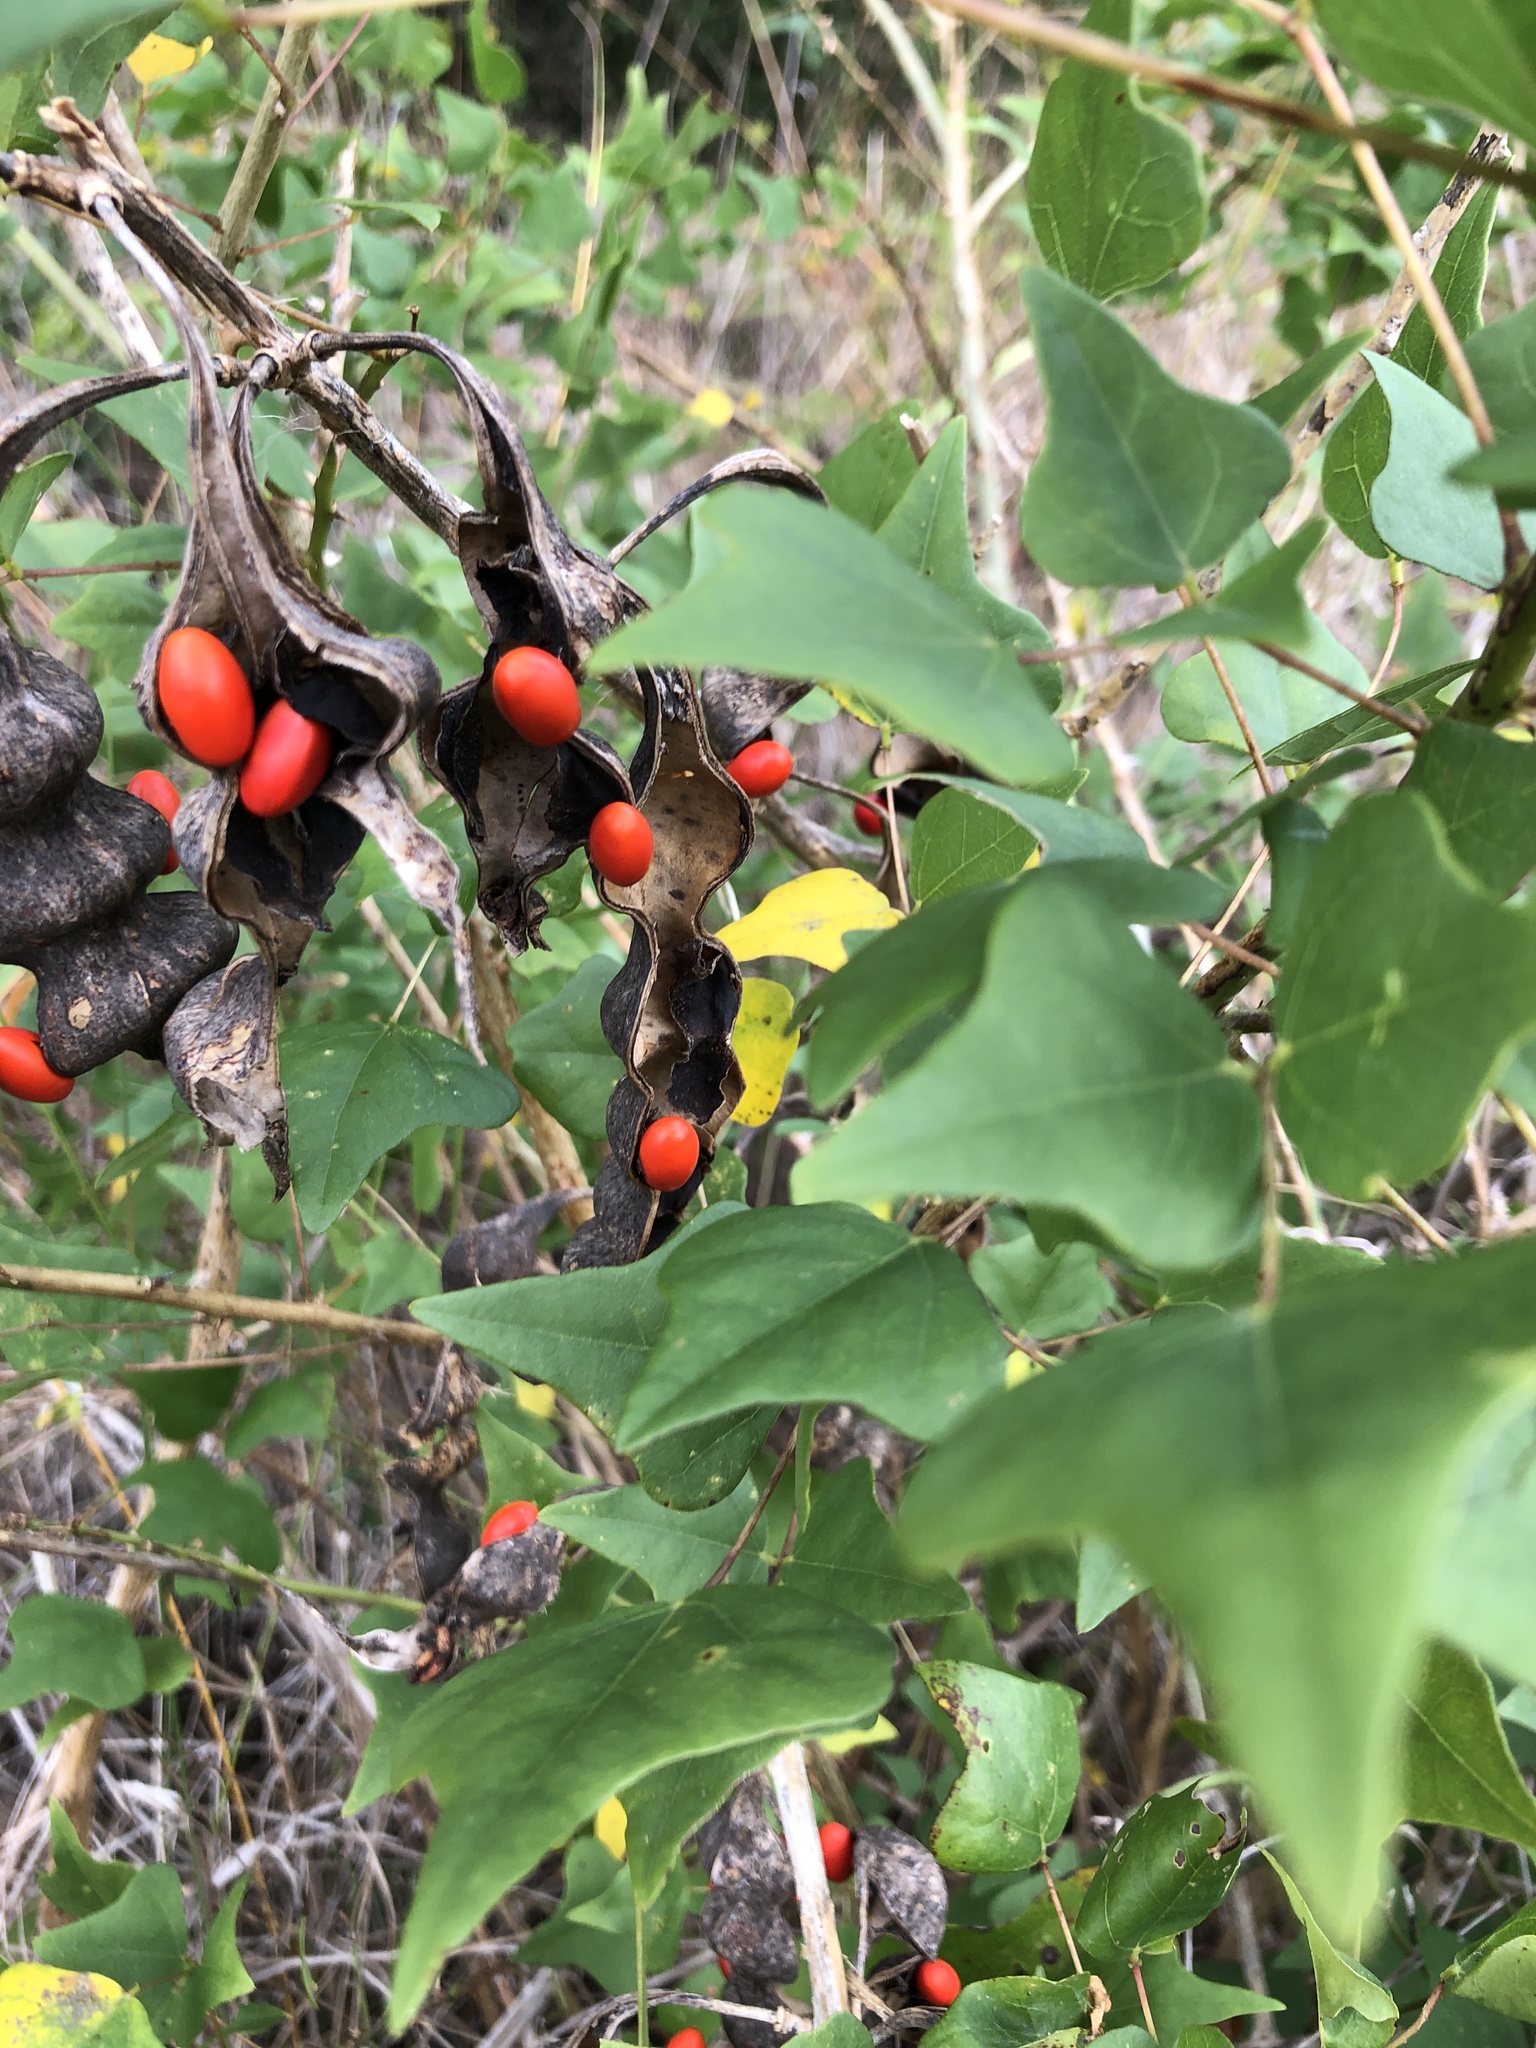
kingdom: Plantae
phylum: Tracheophyta
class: Magnoliopsida
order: Fabales
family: Fabaceae
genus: Erythrina
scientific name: Erythrina herbacea
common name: Coral-bean
